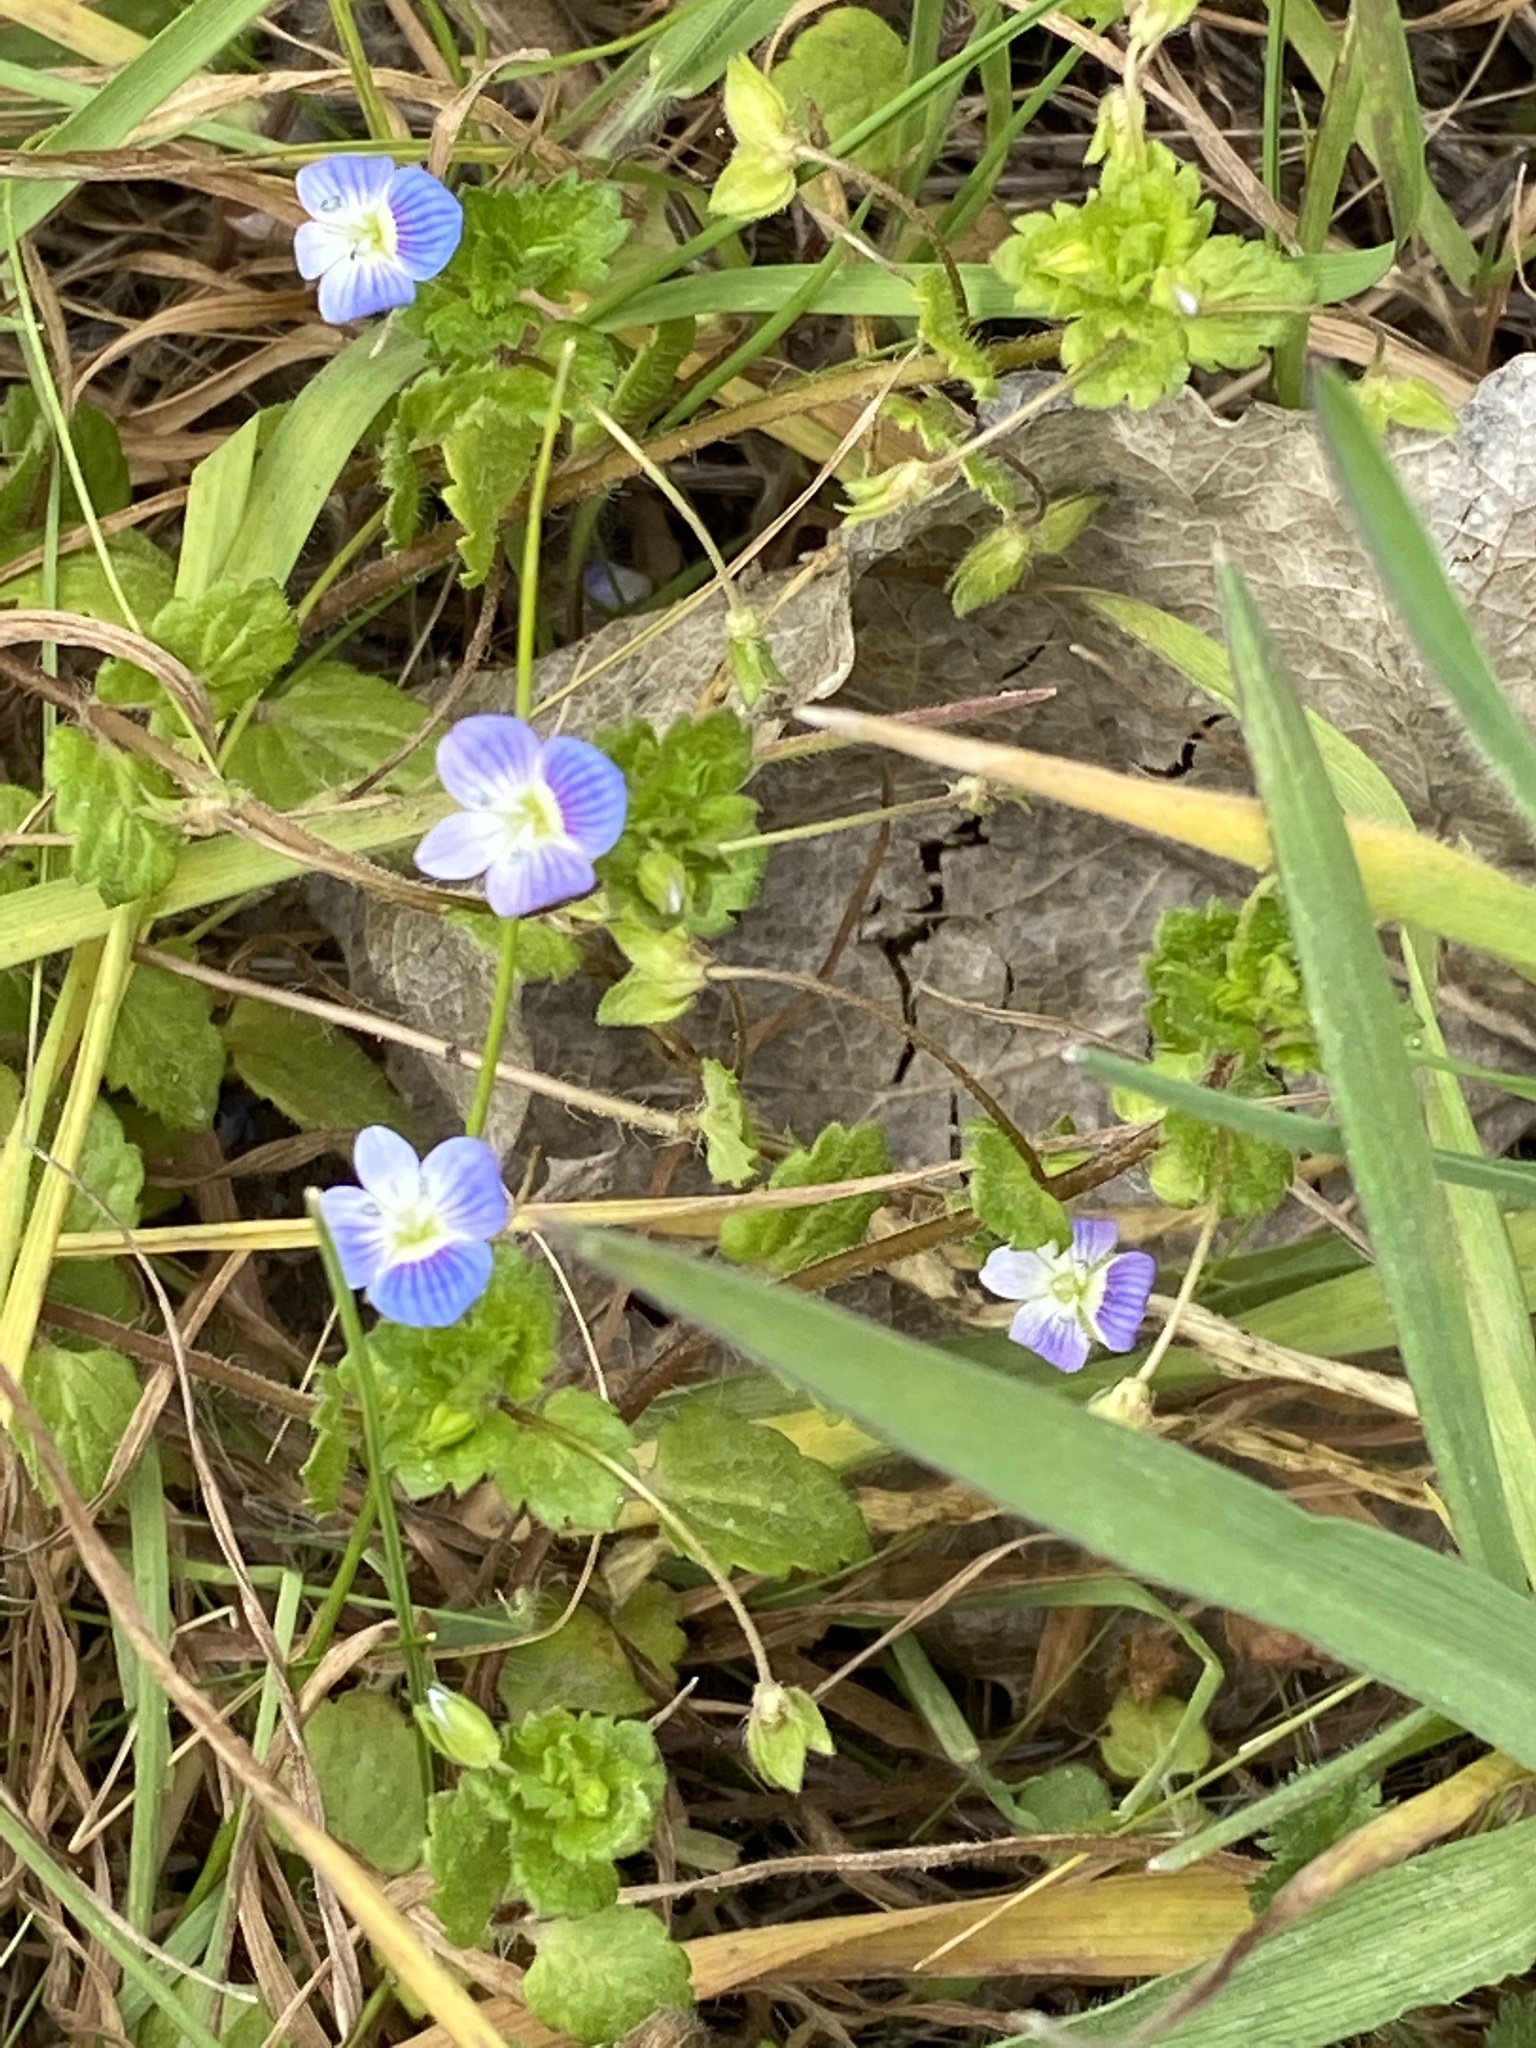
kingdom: Plantae
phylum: Tracheophyta
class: Magnoliopsida
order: Lamiales
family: Plantaginaceae
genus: Veronica
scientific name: Veronica persica
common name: Common field-speedwell
